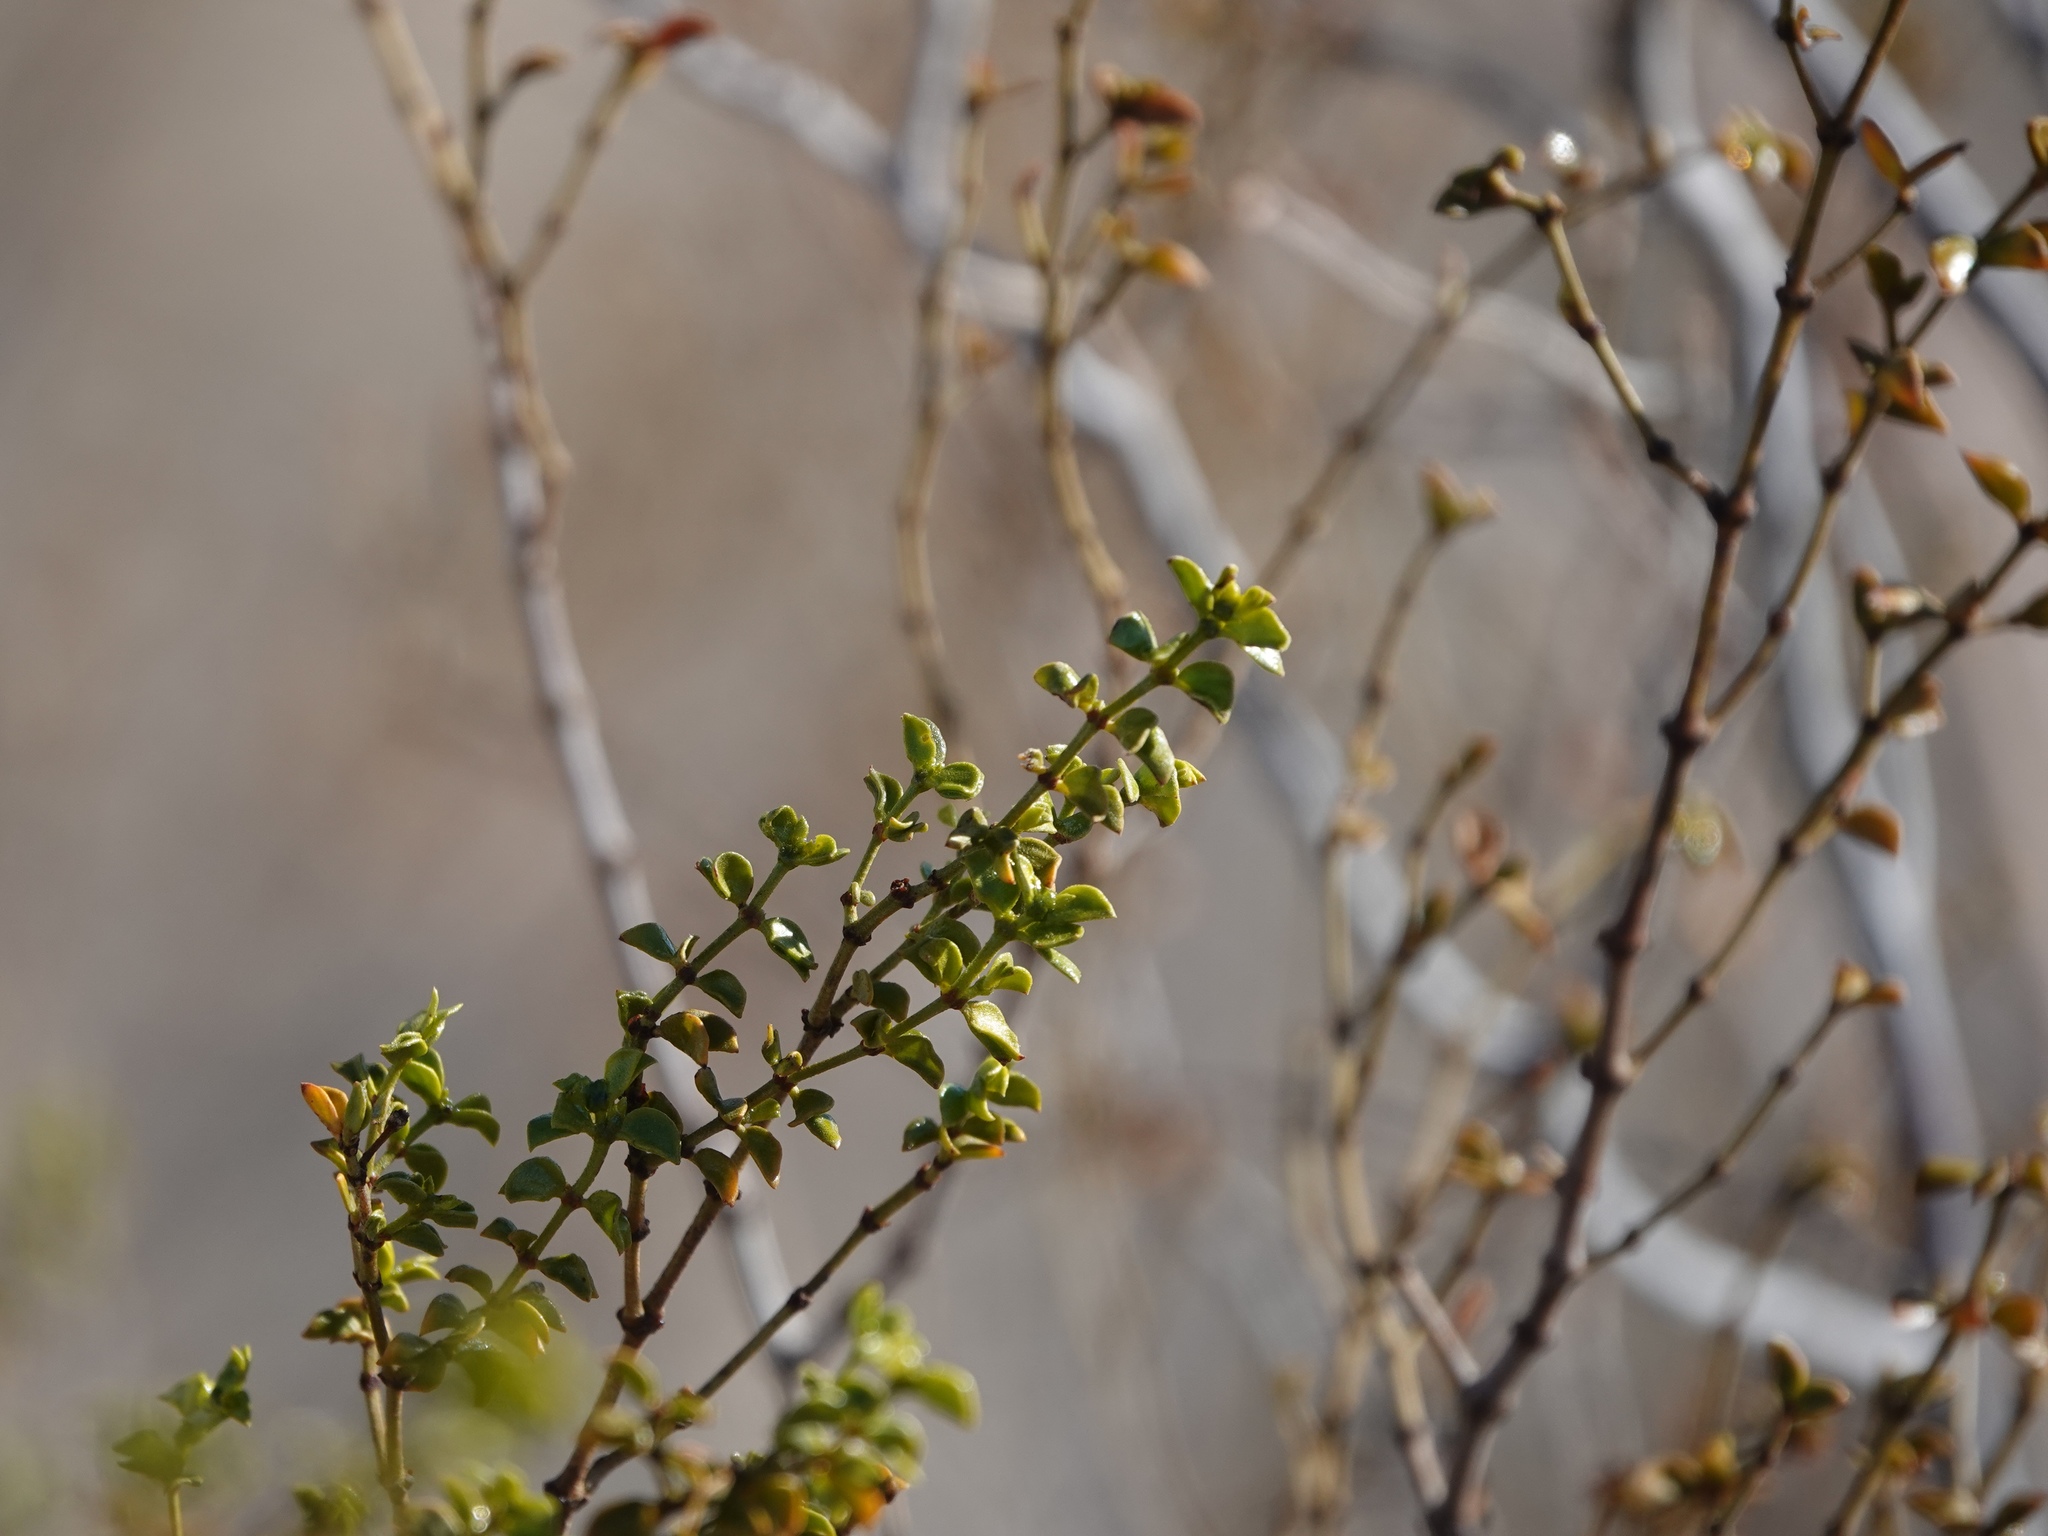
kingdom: Plantae
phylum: Tracheophyta
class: Magnoliopsida
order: Zygophyllales
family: Zygophyllaceae
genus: Larrea
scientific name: Larrea tridentata
